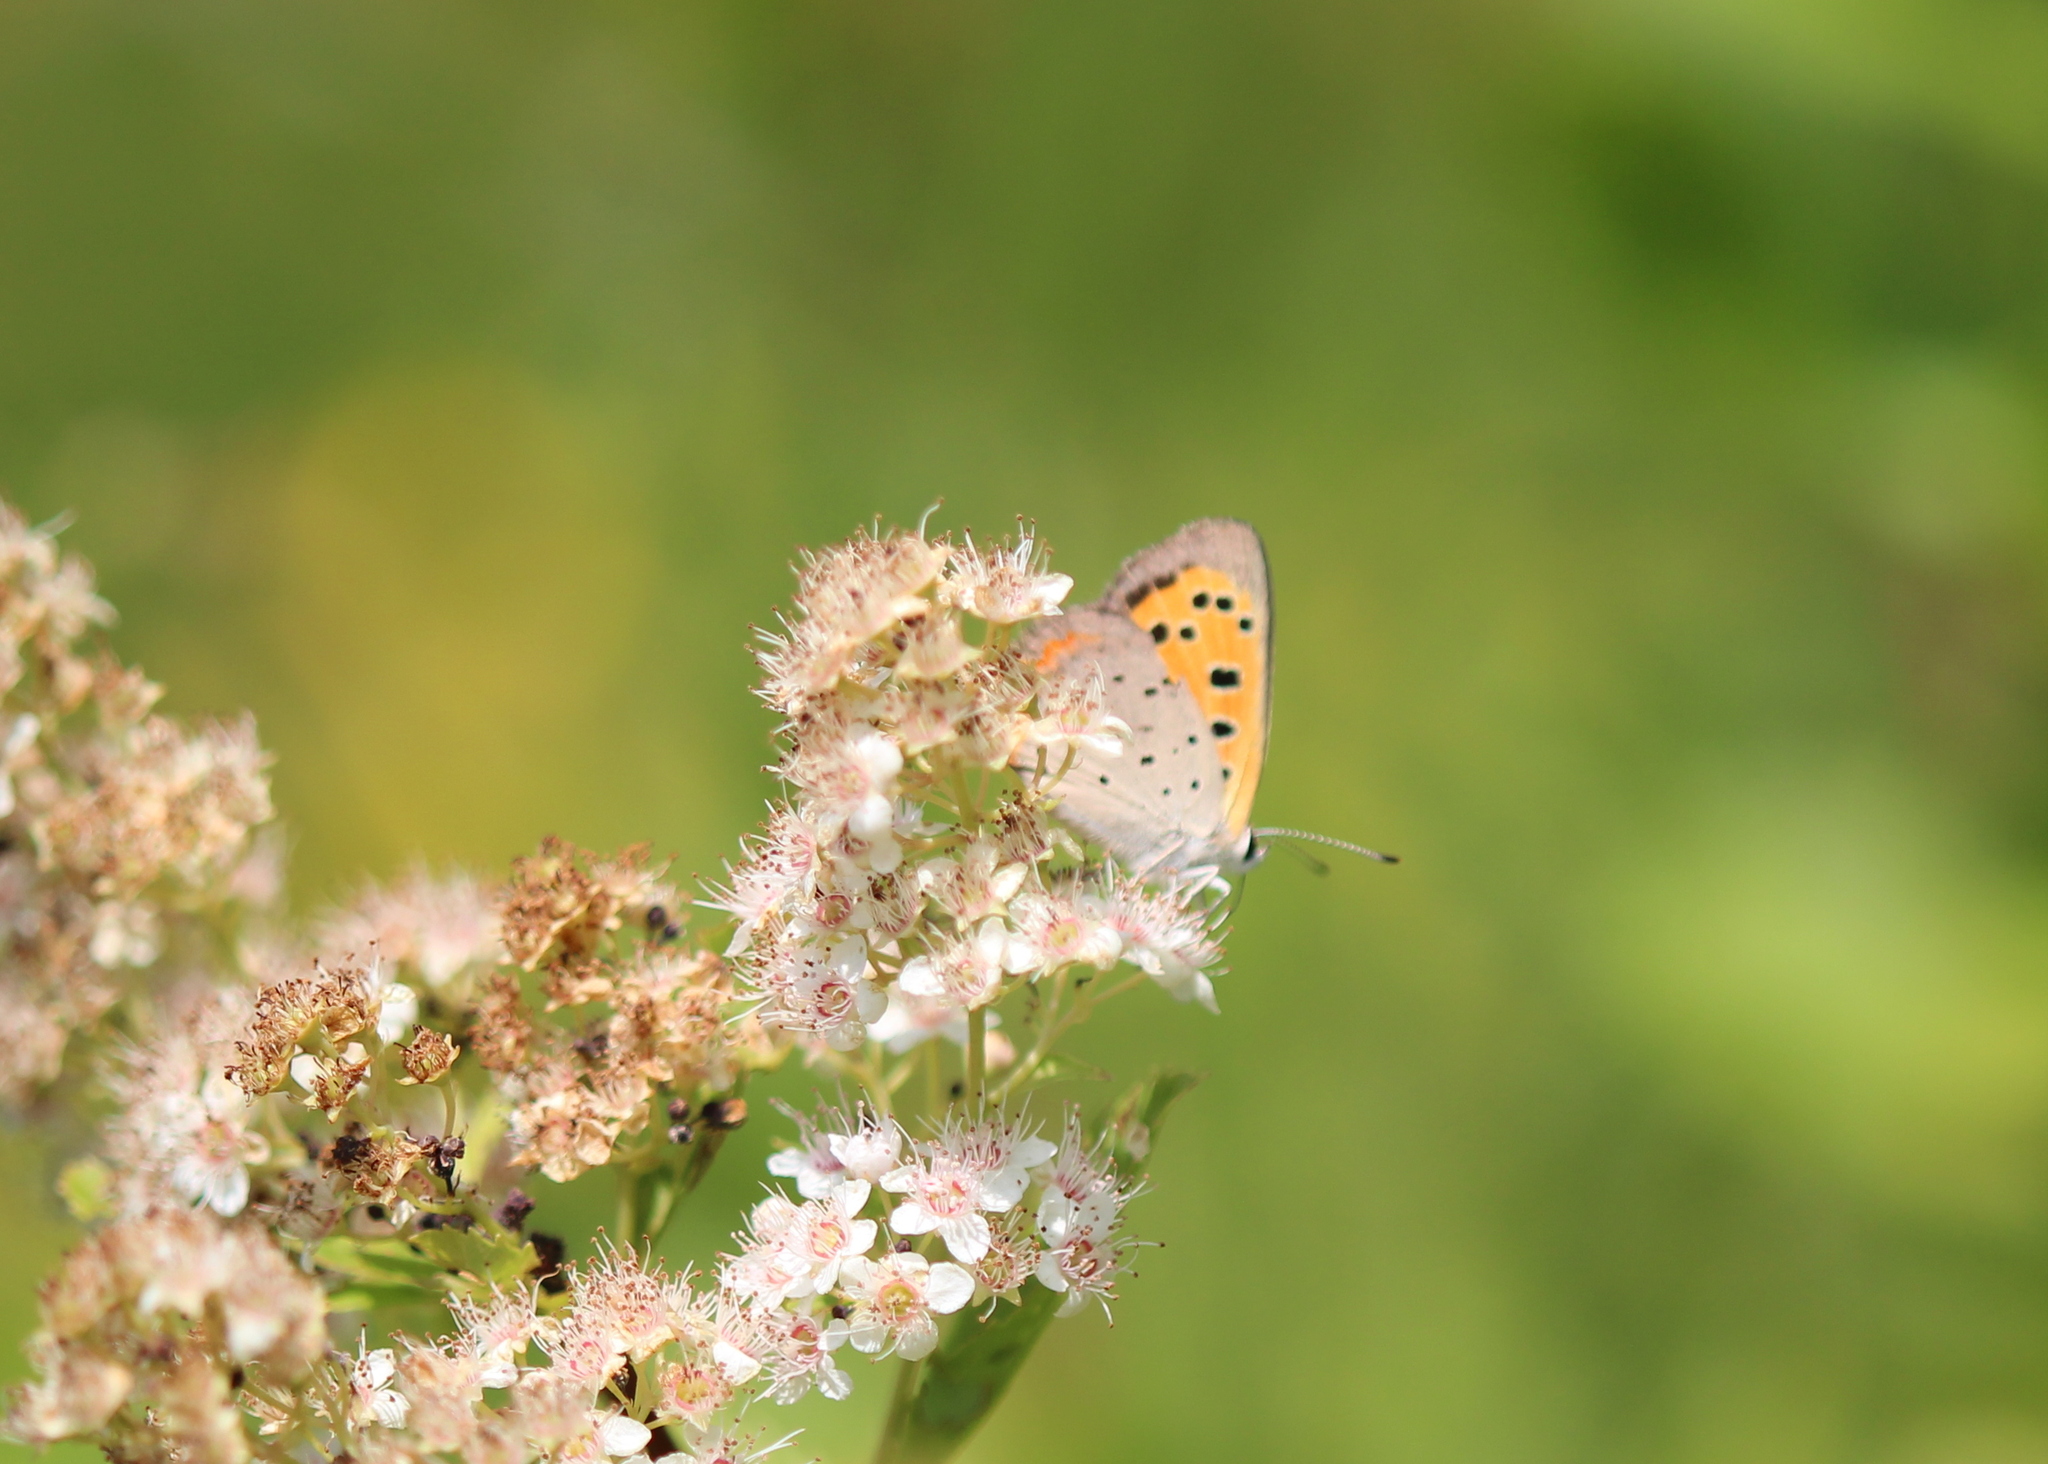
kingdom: Animalia
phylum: Arthropoda
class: Insecta
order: Lepidoptera
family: Lycaenidae
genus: Lycaena
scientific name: Lycaena hypophlaeas
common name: American copper
